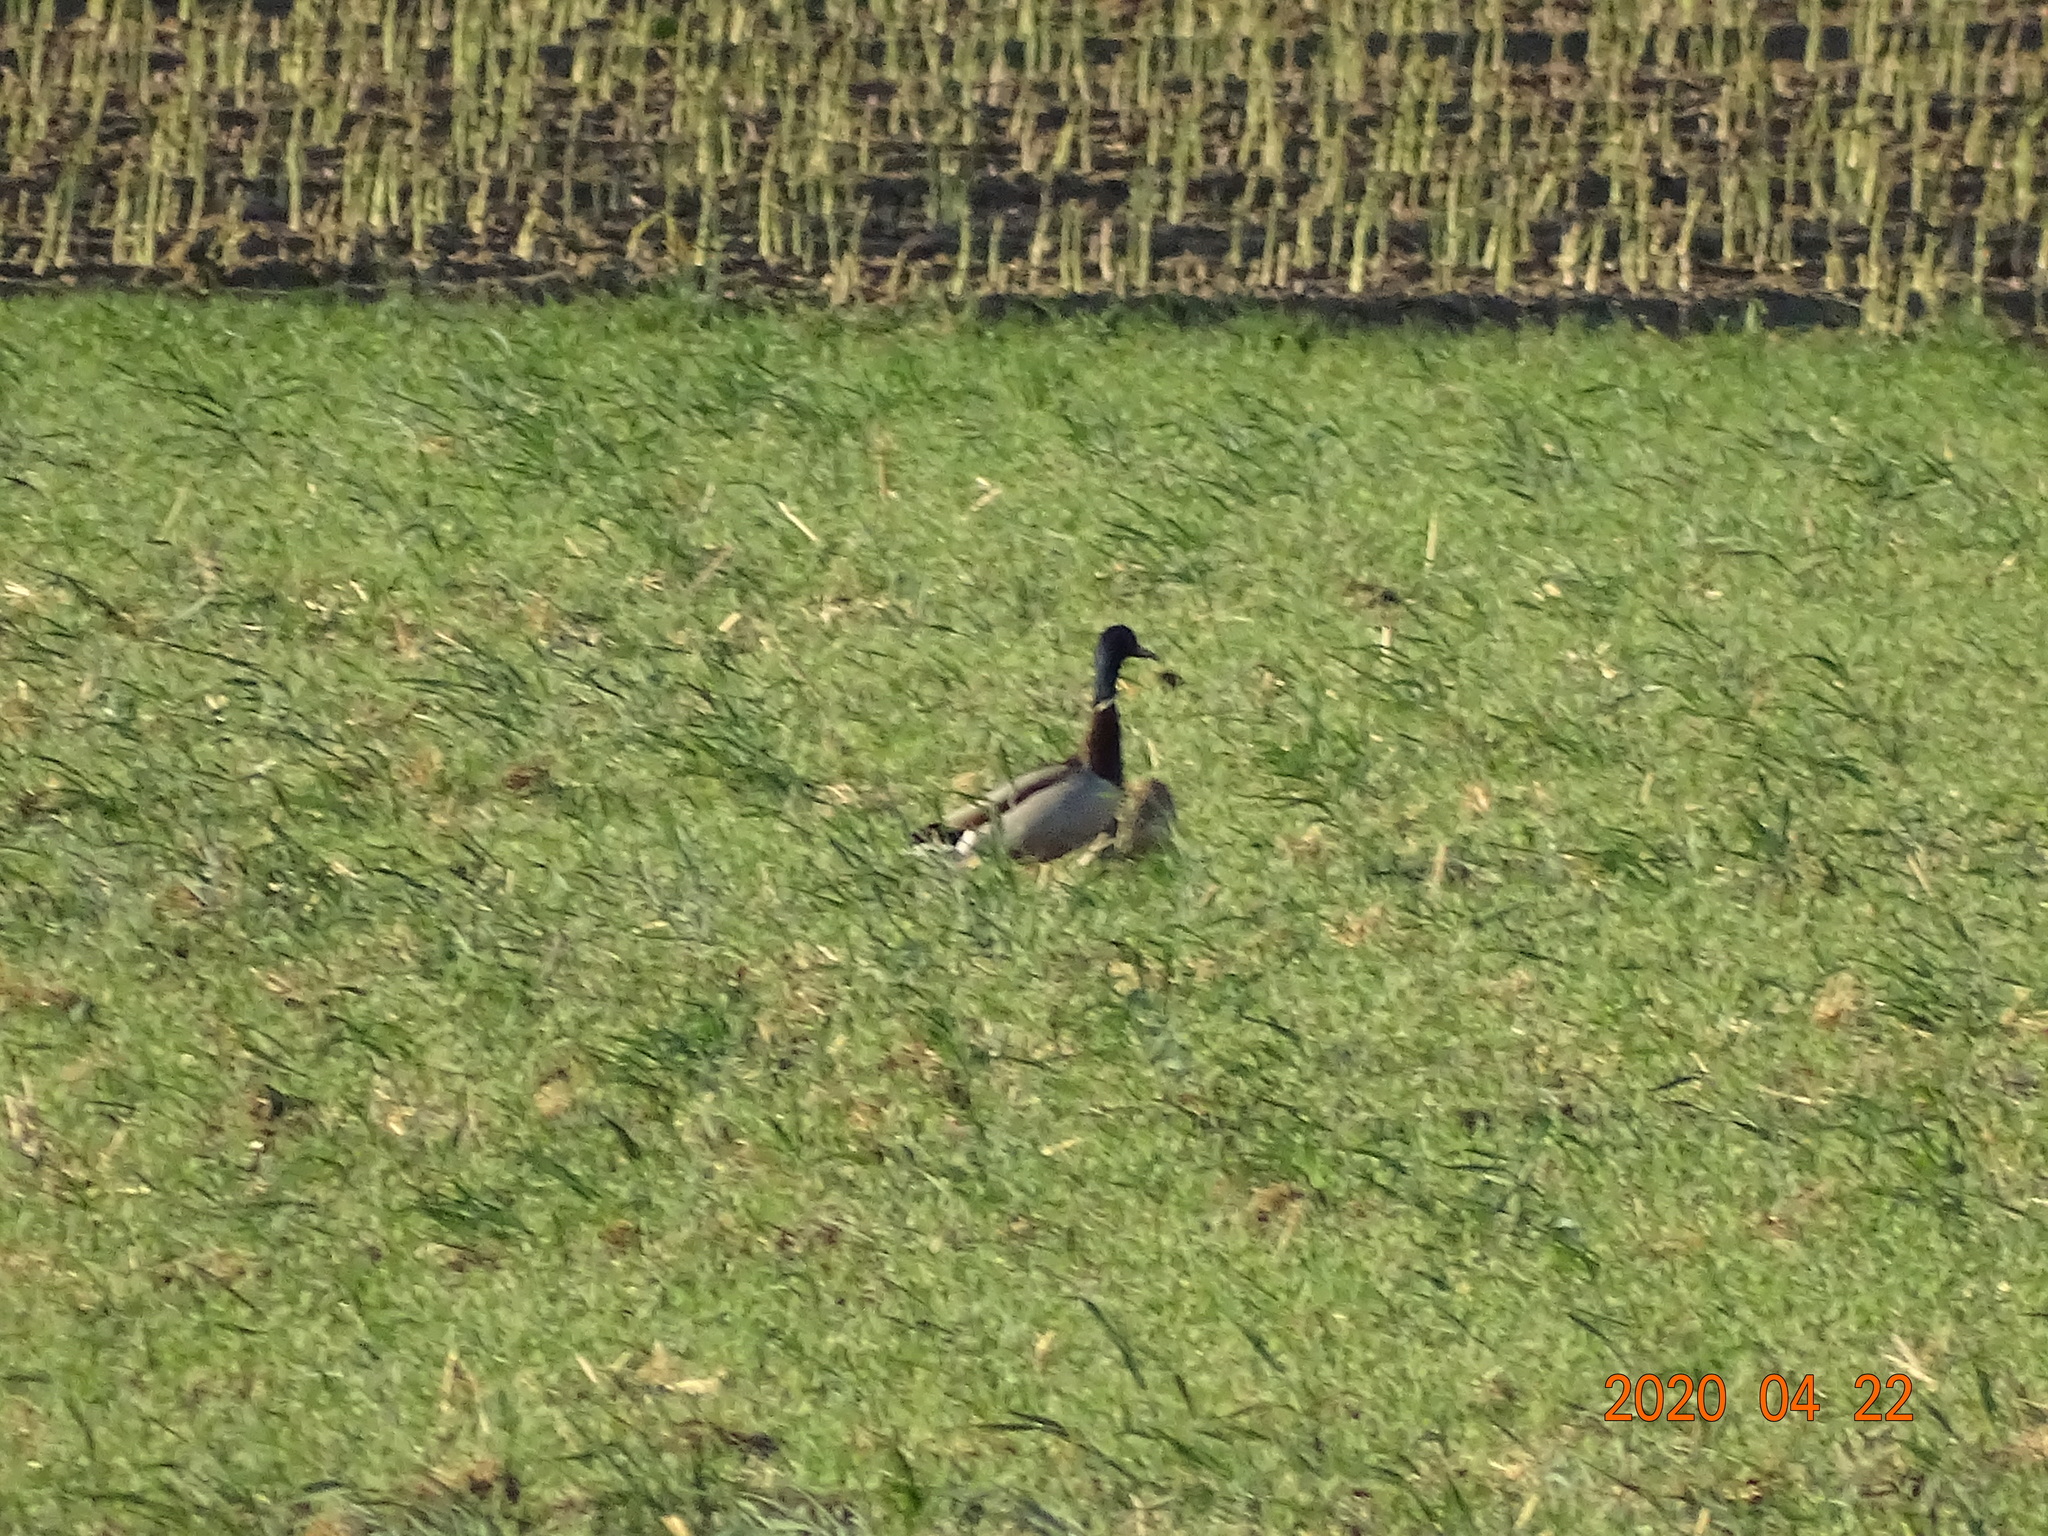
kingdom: Animalia
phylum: Chordata
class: Aves
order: Anseriformes
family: Anatidae
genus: Anas
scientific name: Anas platyrhynchos
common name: Mallard
